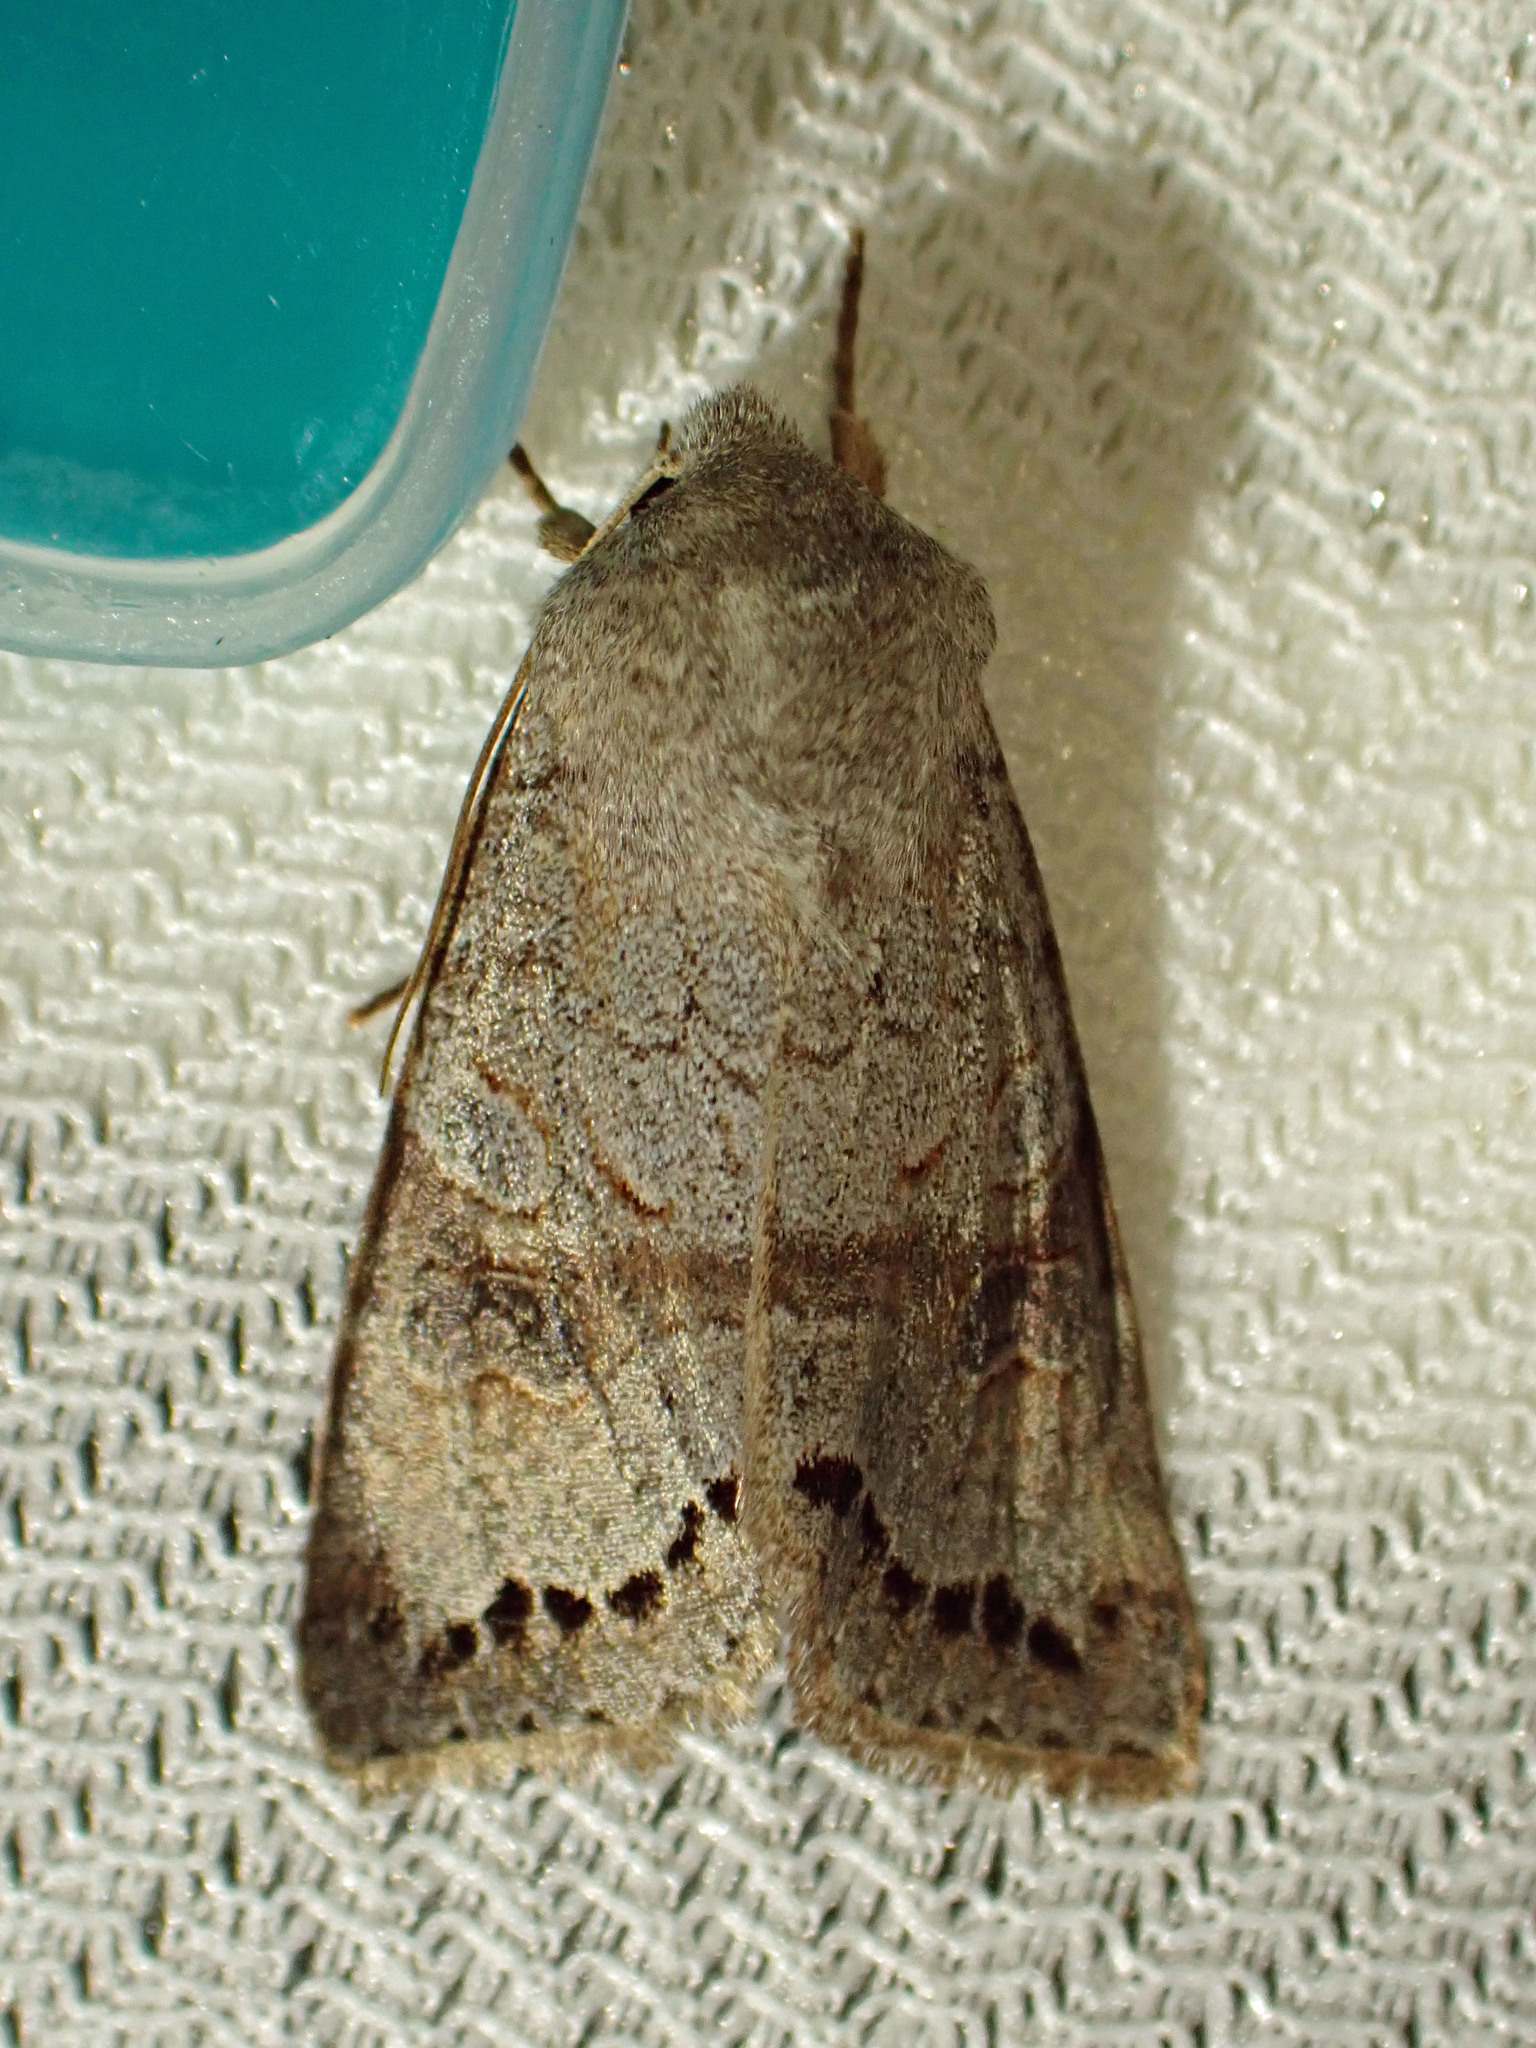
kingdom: Animalia
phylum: Arthropoda
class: Insecta
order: Lepidoptera
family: Noctuidae
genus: Orthosia
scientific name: Orthosia revicta
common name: Rusty whitesided caterpillar
